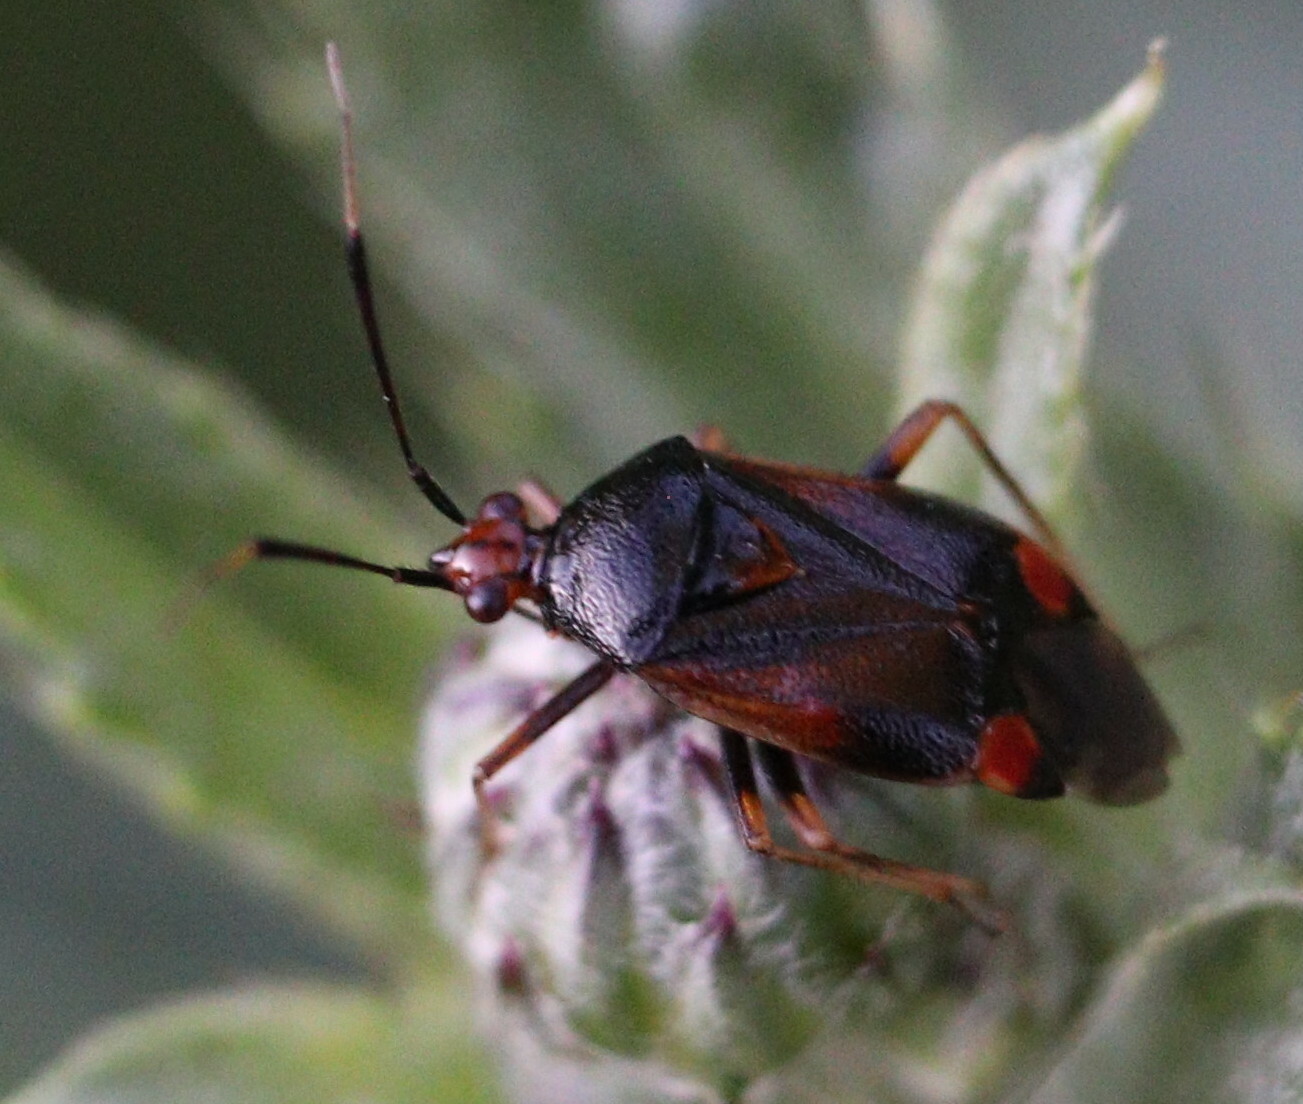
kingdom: Animalia
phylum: Arthropoda
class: Insecta
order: Hemiptera
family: Miridae
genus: Deraeocoris
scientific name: Deraeocoris ruber
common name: Plant bug
